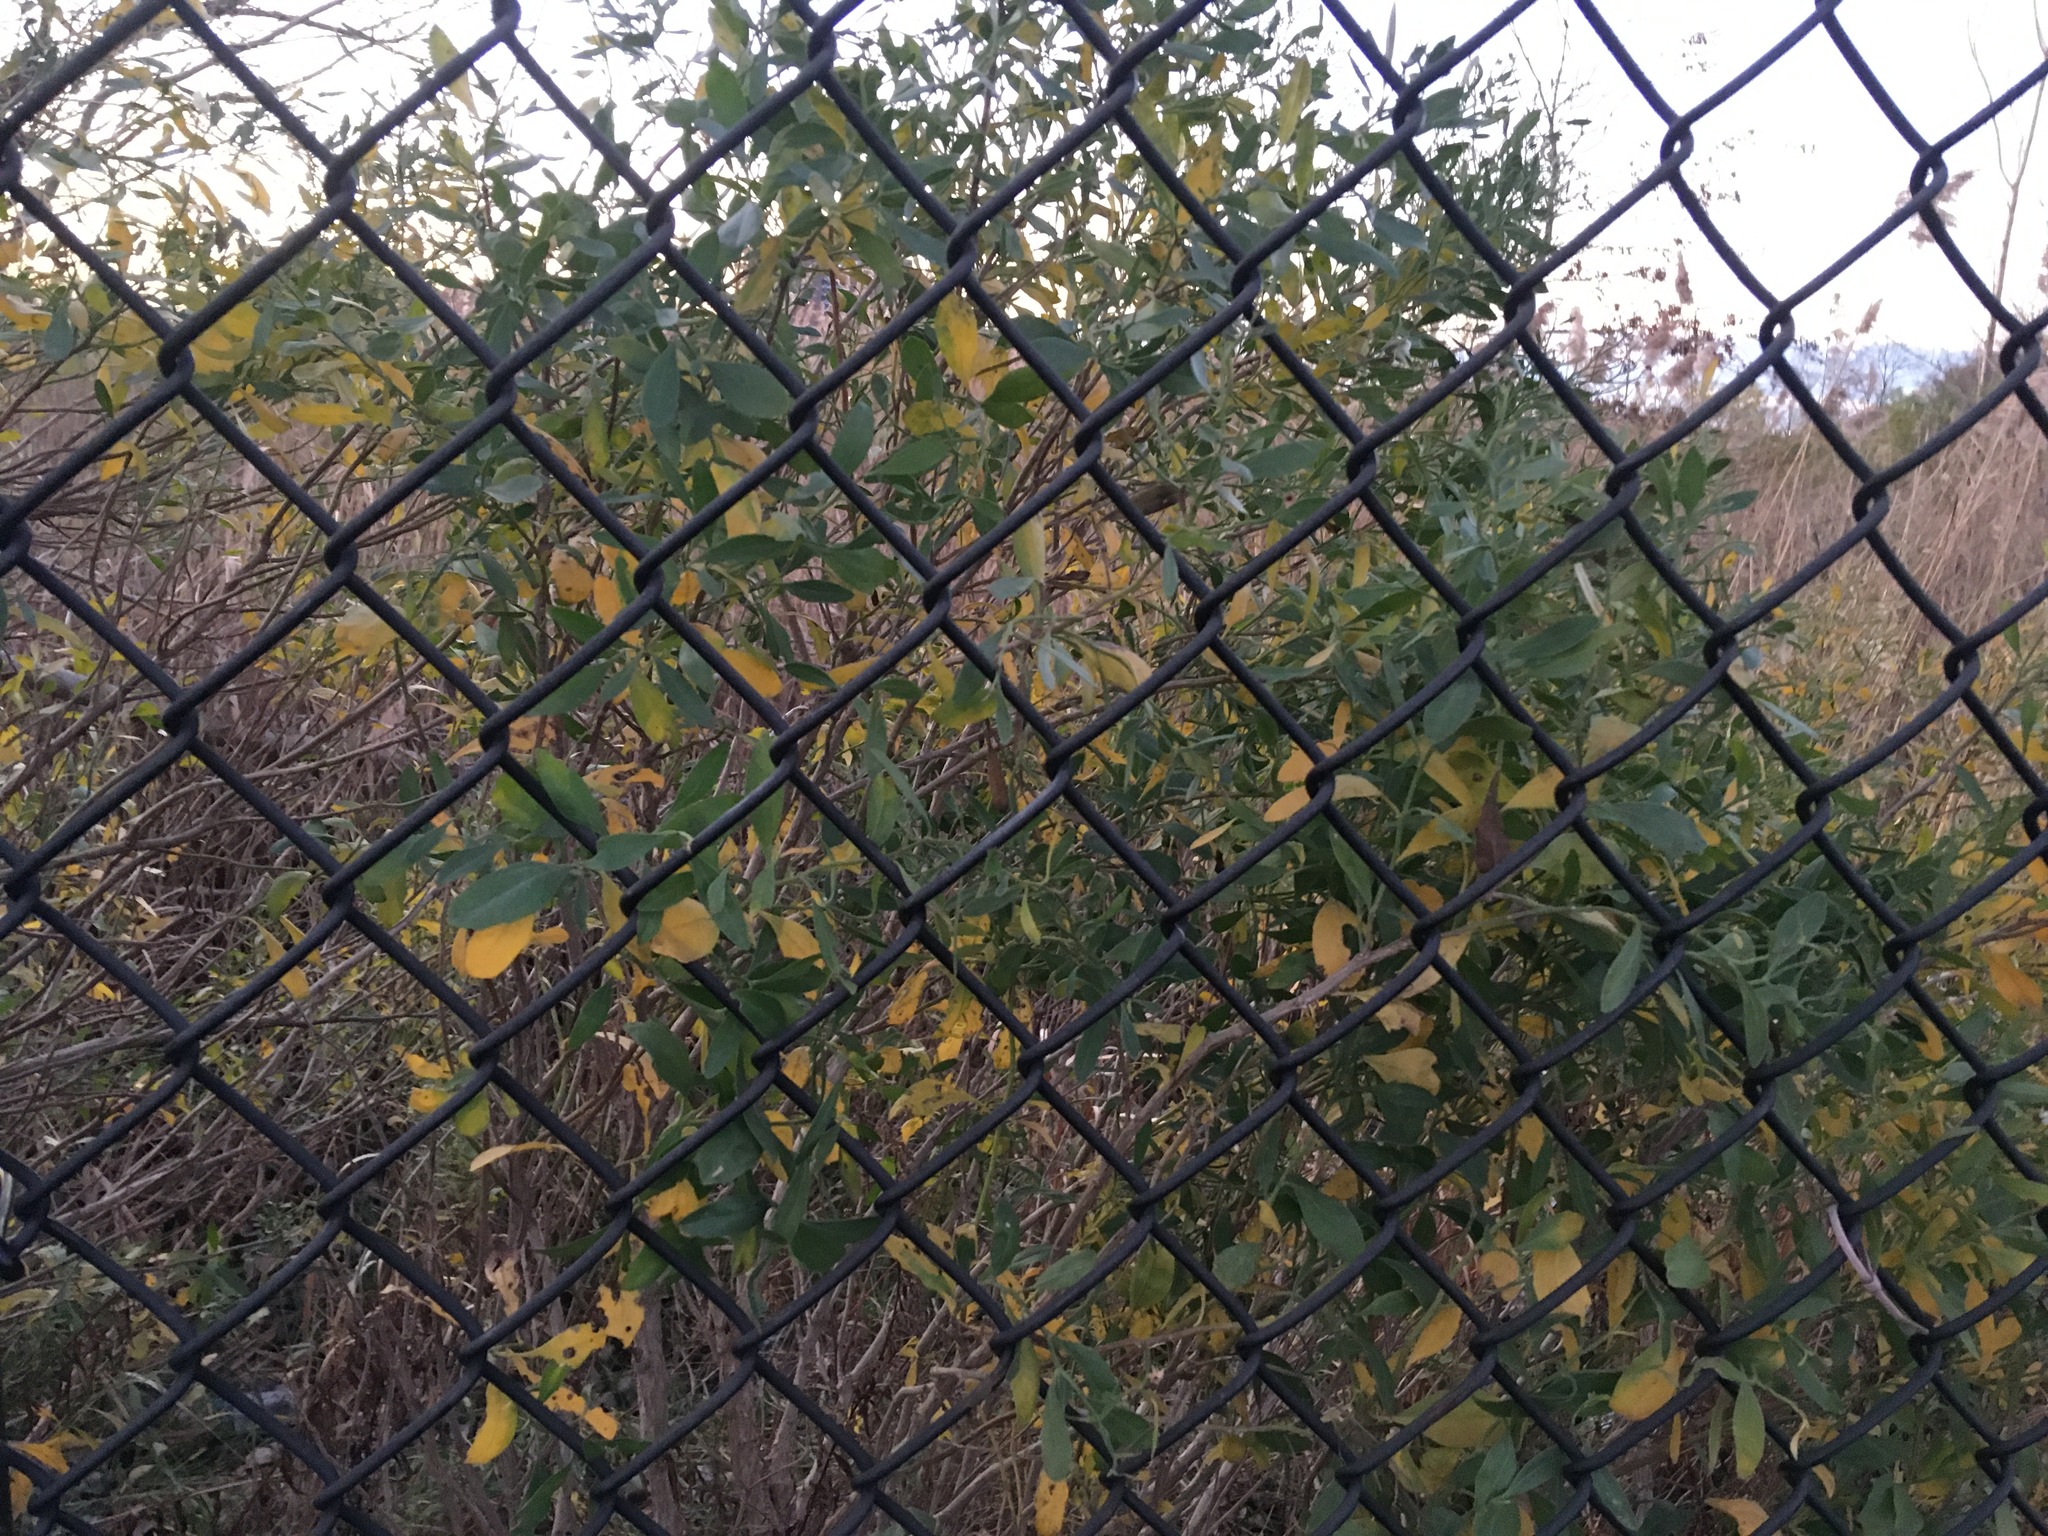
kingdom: Plantae
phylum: Tracheophyta
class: Magnoliopsida
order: Asterales
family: Asteraceae
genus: Baccharis
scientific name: Baccharis halimifolia
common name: Eastern baccharis
